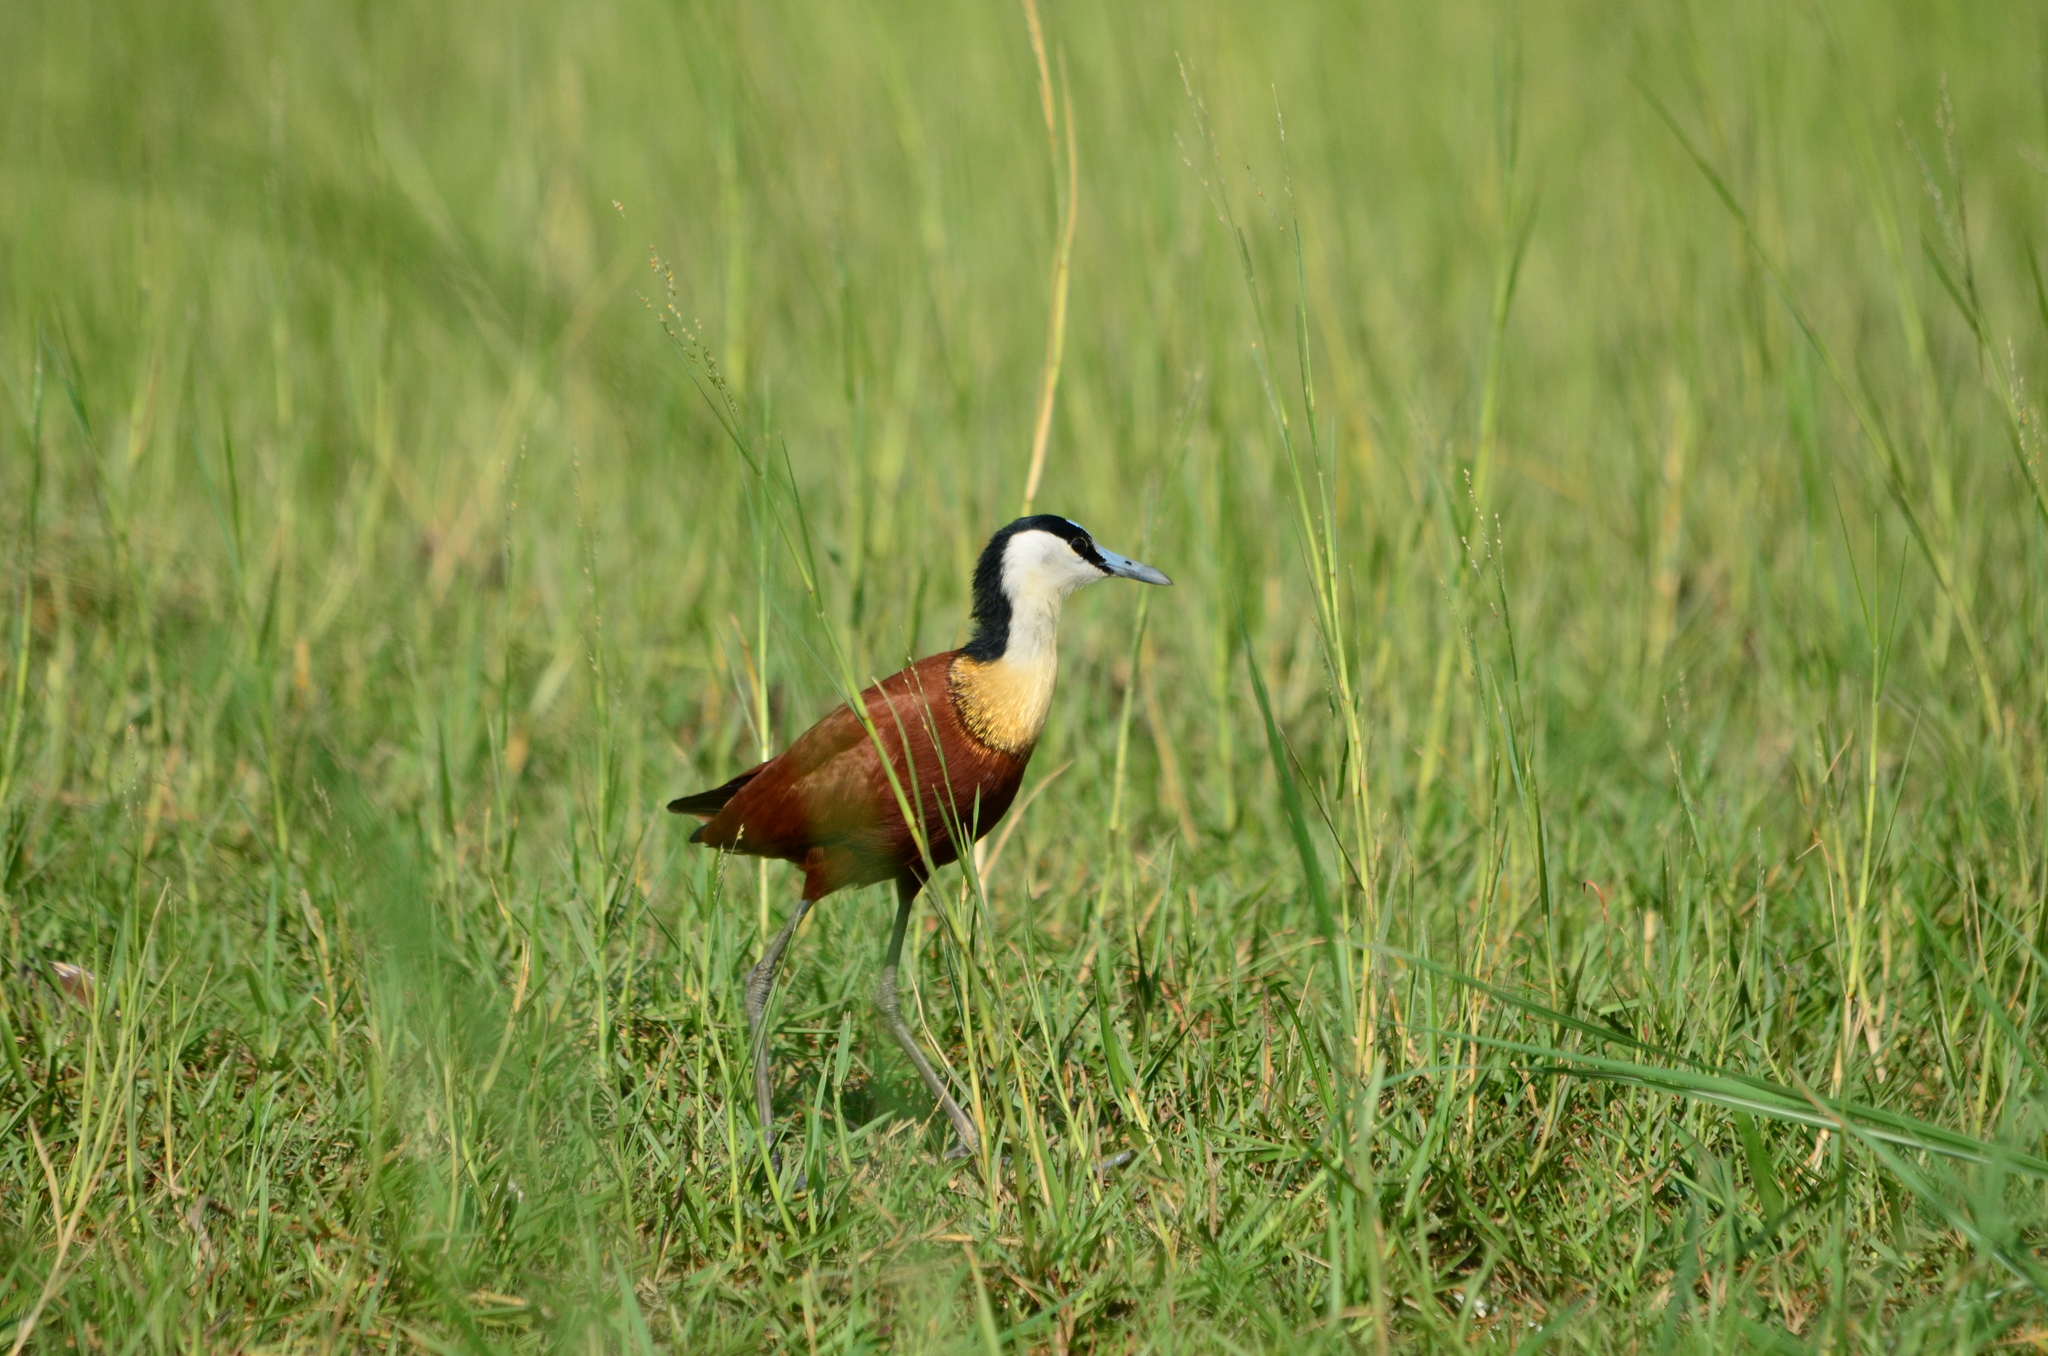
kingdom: Animalia
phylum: Chordata
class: Aves
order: Charadriiformes
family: Jacanidae
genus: Actophilornis
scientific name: Actophilornis africanus
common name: African jacana
